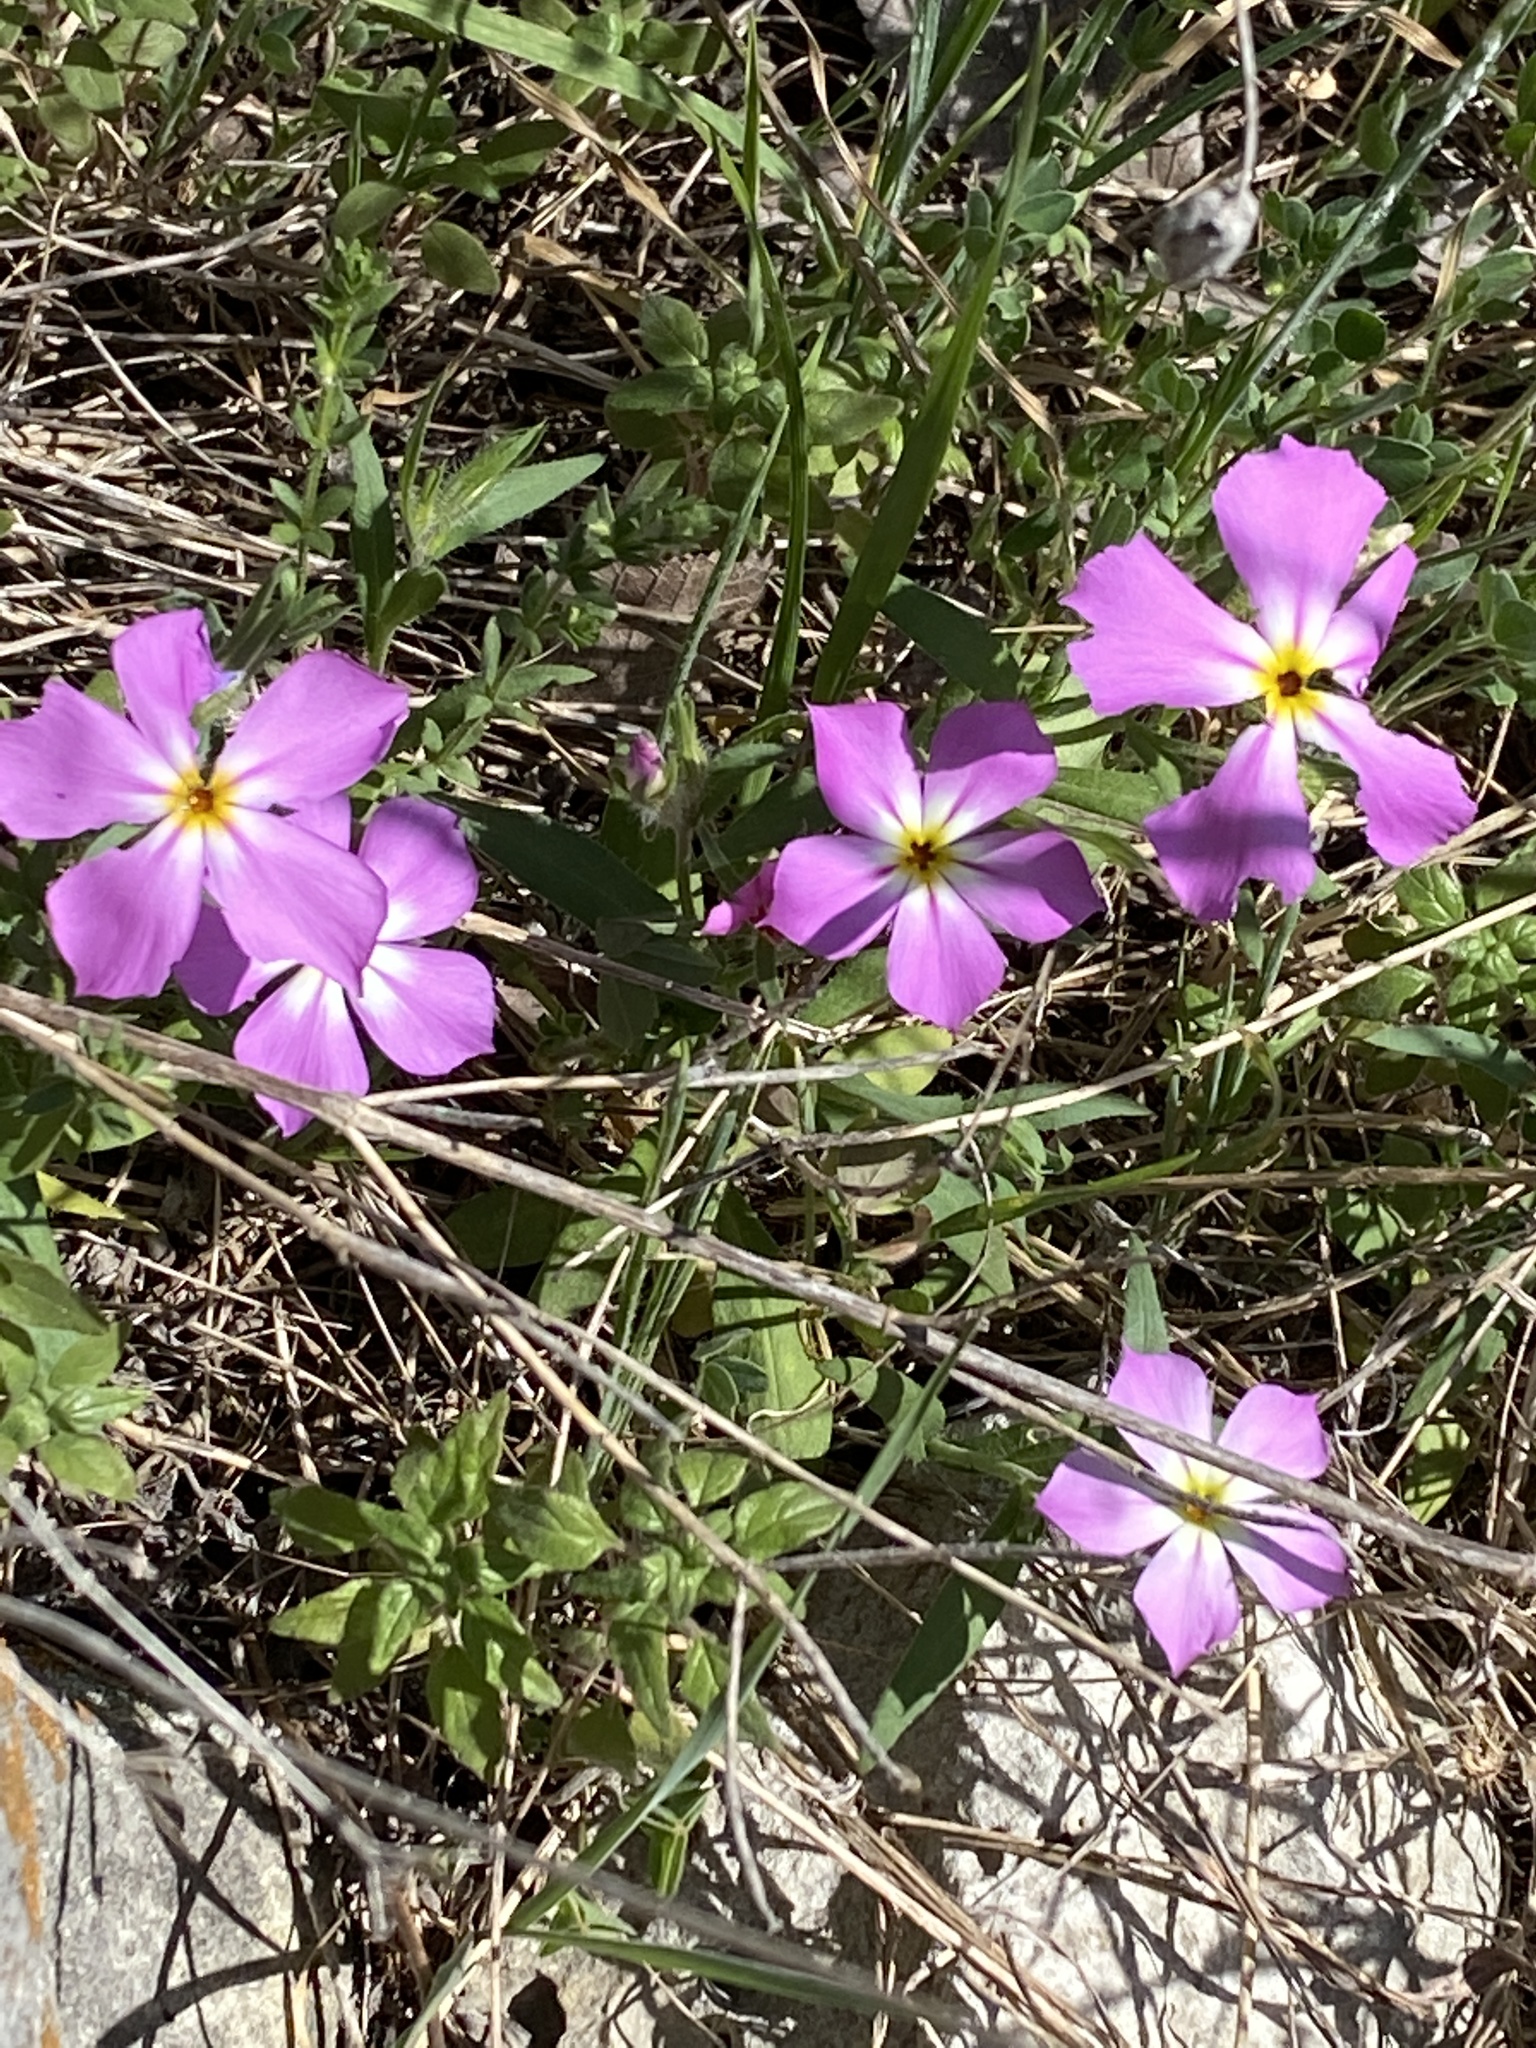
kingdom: Plantae
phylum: Tracheophyta
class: Magnoliopsida
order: Ericales
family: Polemoniaceae
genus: Phlox
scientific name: Phlox roemeriana
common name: Roemer's phlox
